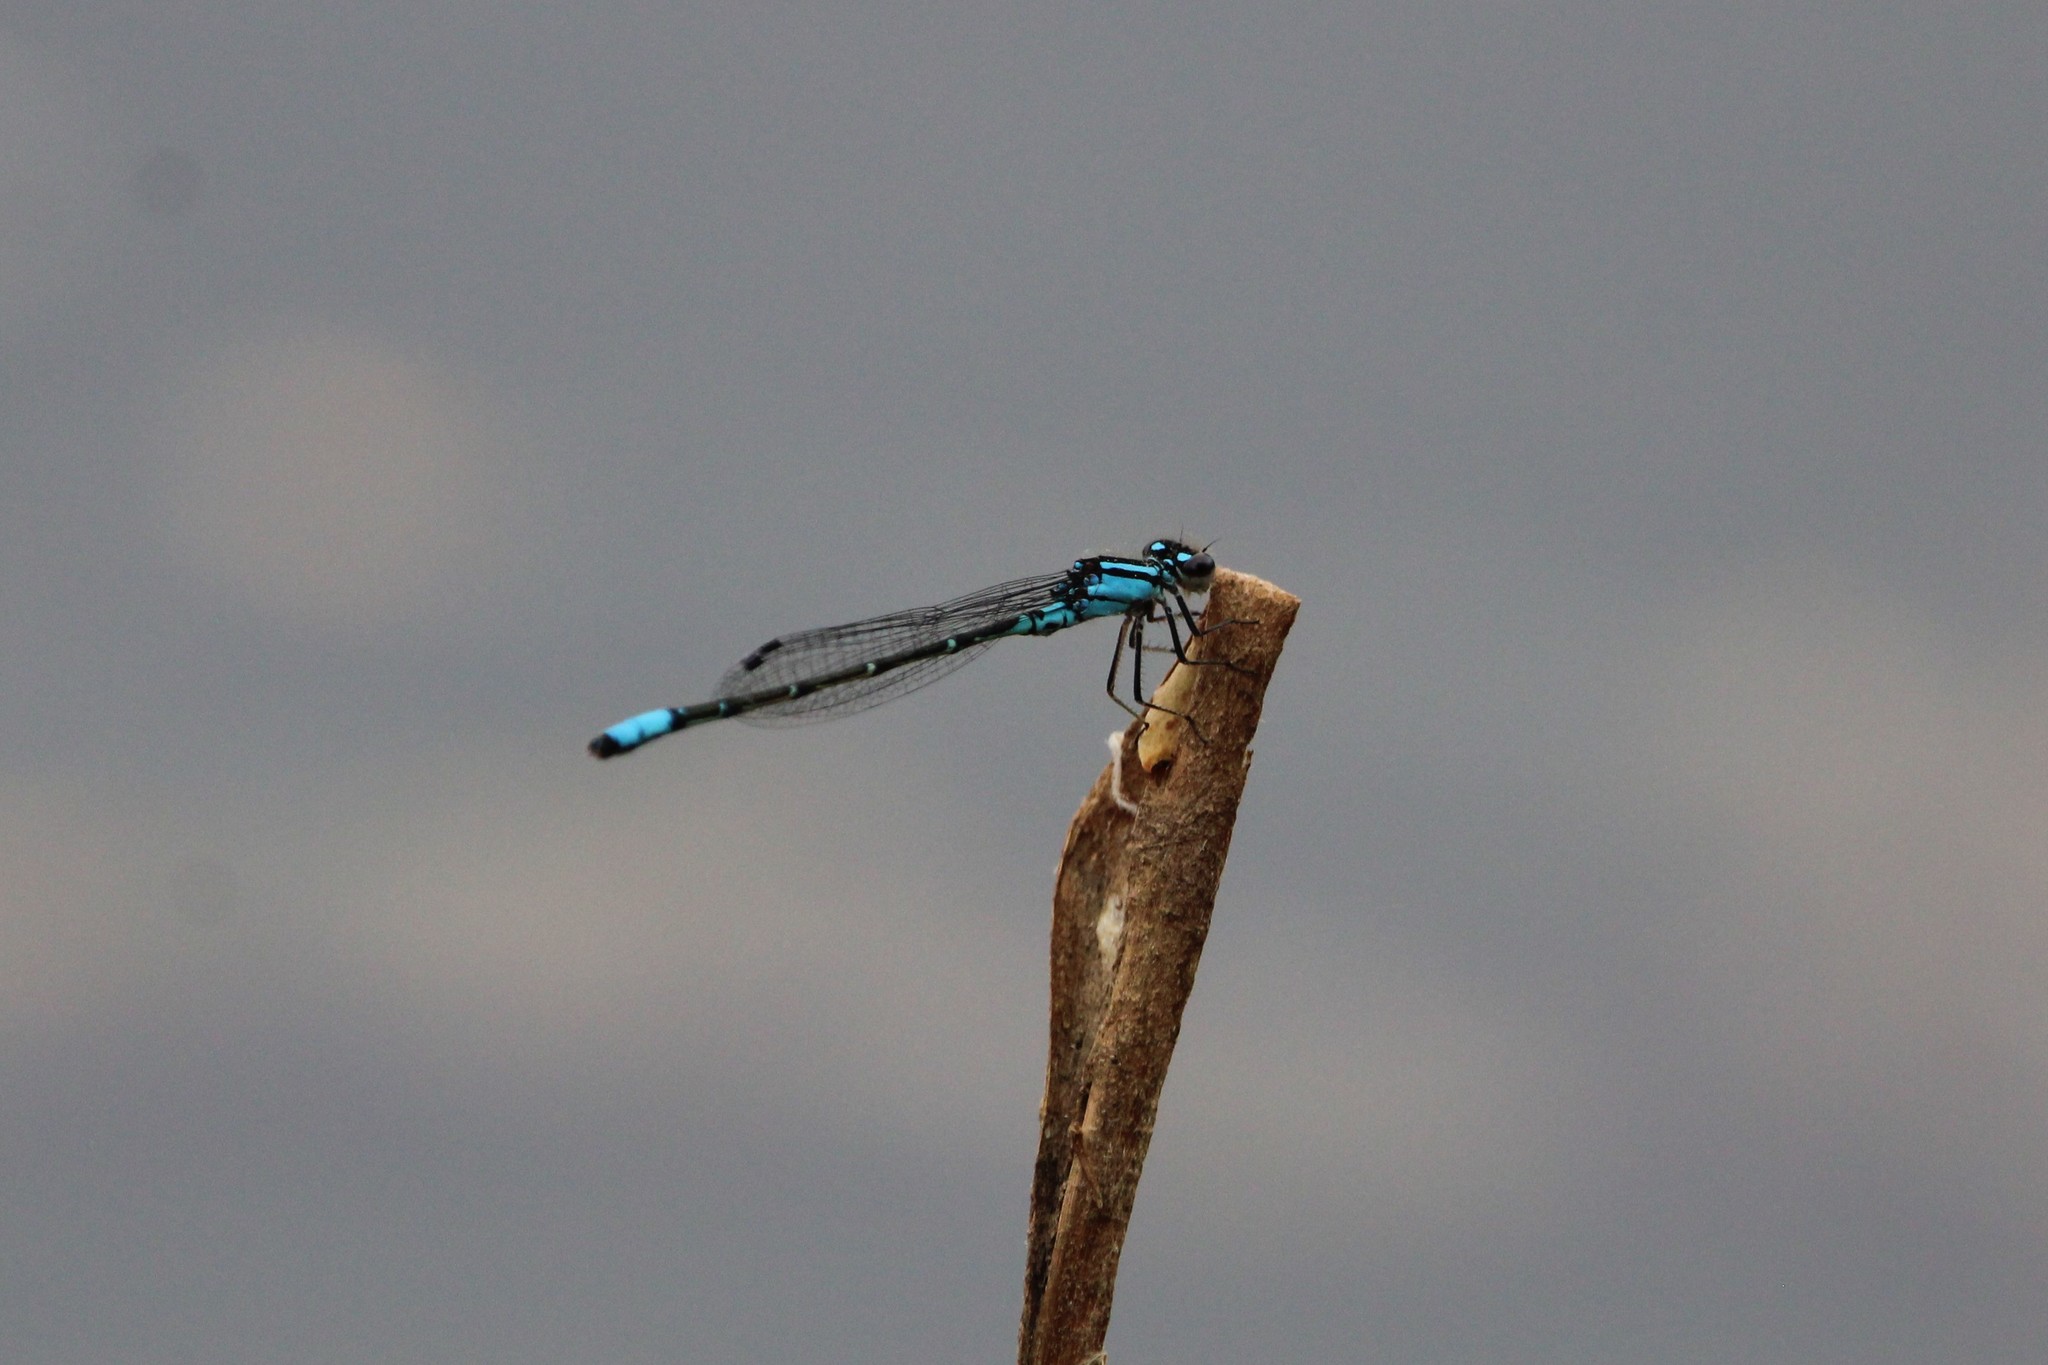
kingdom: Animalia
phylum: Arthropoda
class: Insecta
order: Odonata
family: Coenagrionidae
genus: Enallagma
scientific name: Enallagma geminatum
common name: Skimming bluet
